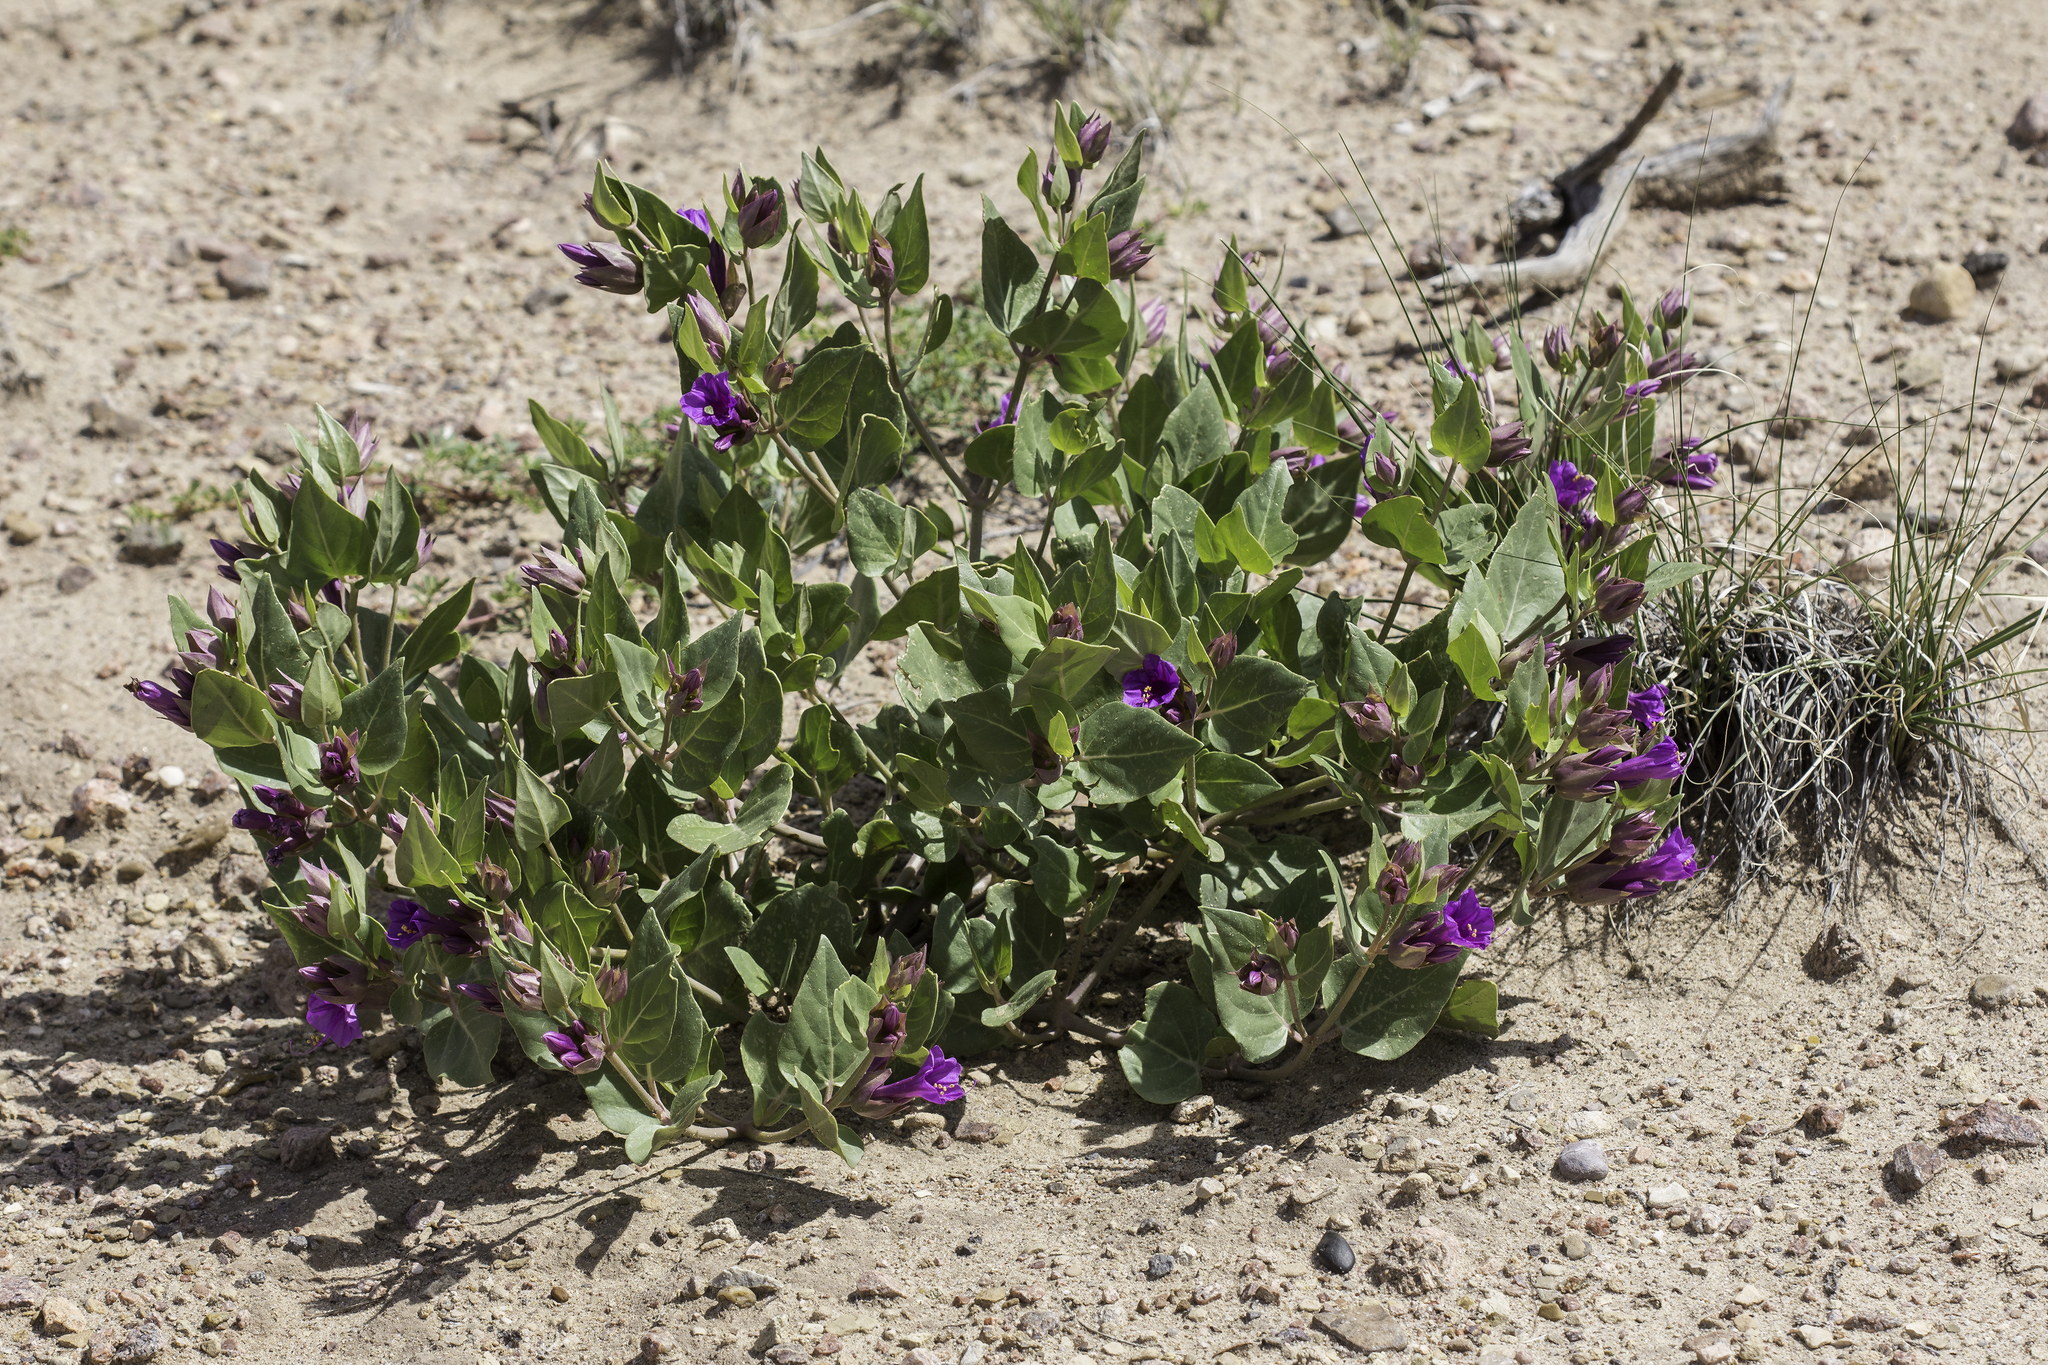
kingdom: Plantae
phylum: Tracheophyta
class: Magnoliopsida
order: Caryophyllales
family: Nyctaginaceae
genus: Mirabilis
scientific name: Mirabilis multiflora
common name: Froebel's four-o'clock
